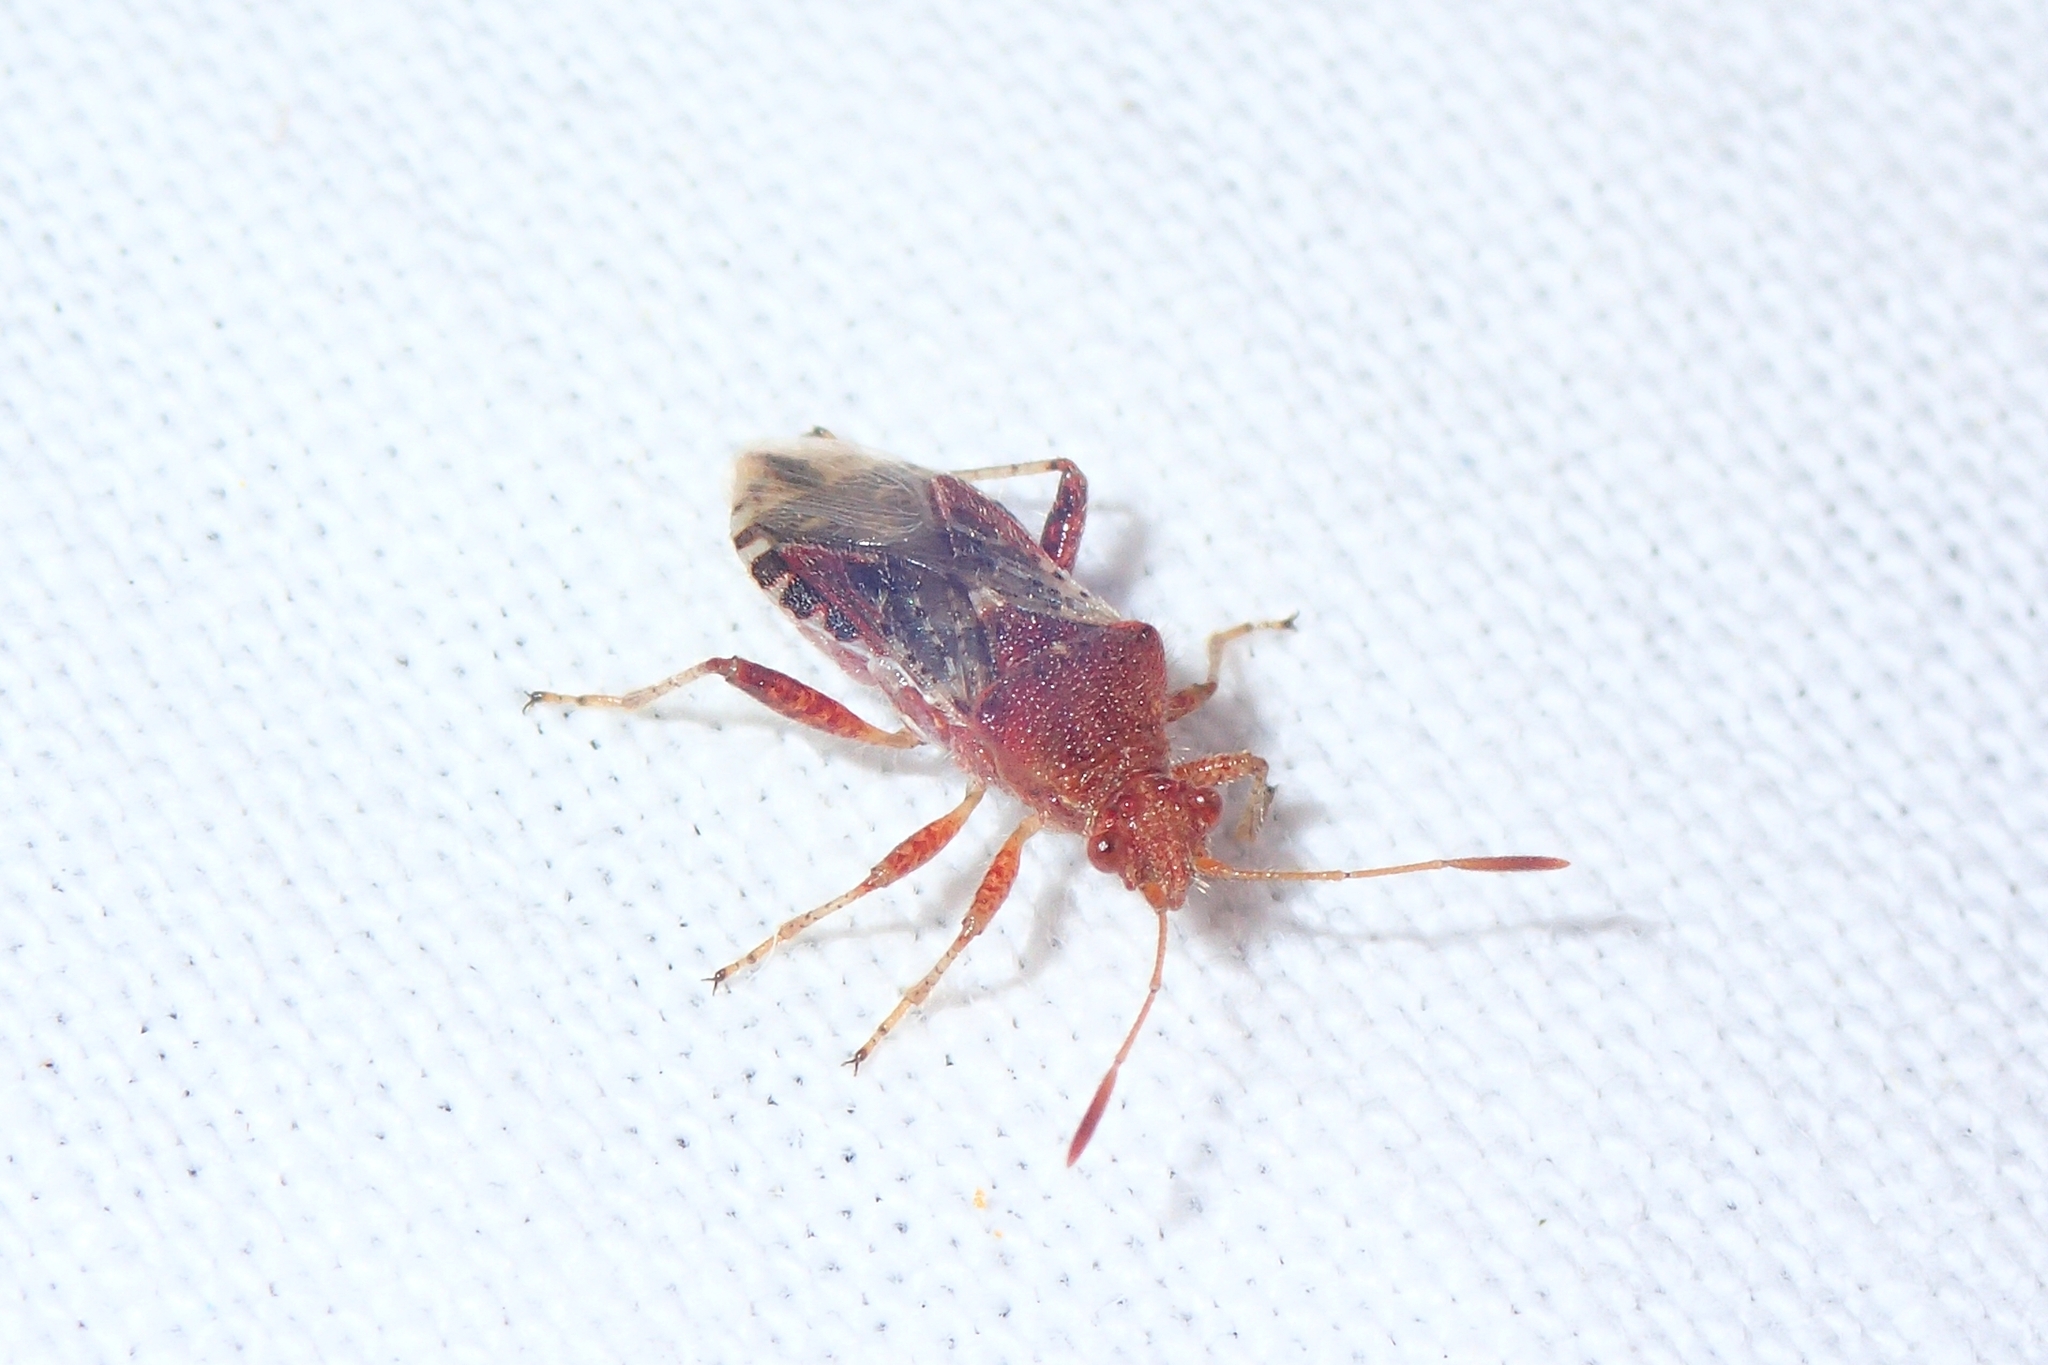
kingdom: Animalia
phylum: Arthropoda
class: Insecta
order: Hemiptera
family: Rhopalidae
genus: Rhopalus
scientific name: Rhopalus subrufus
